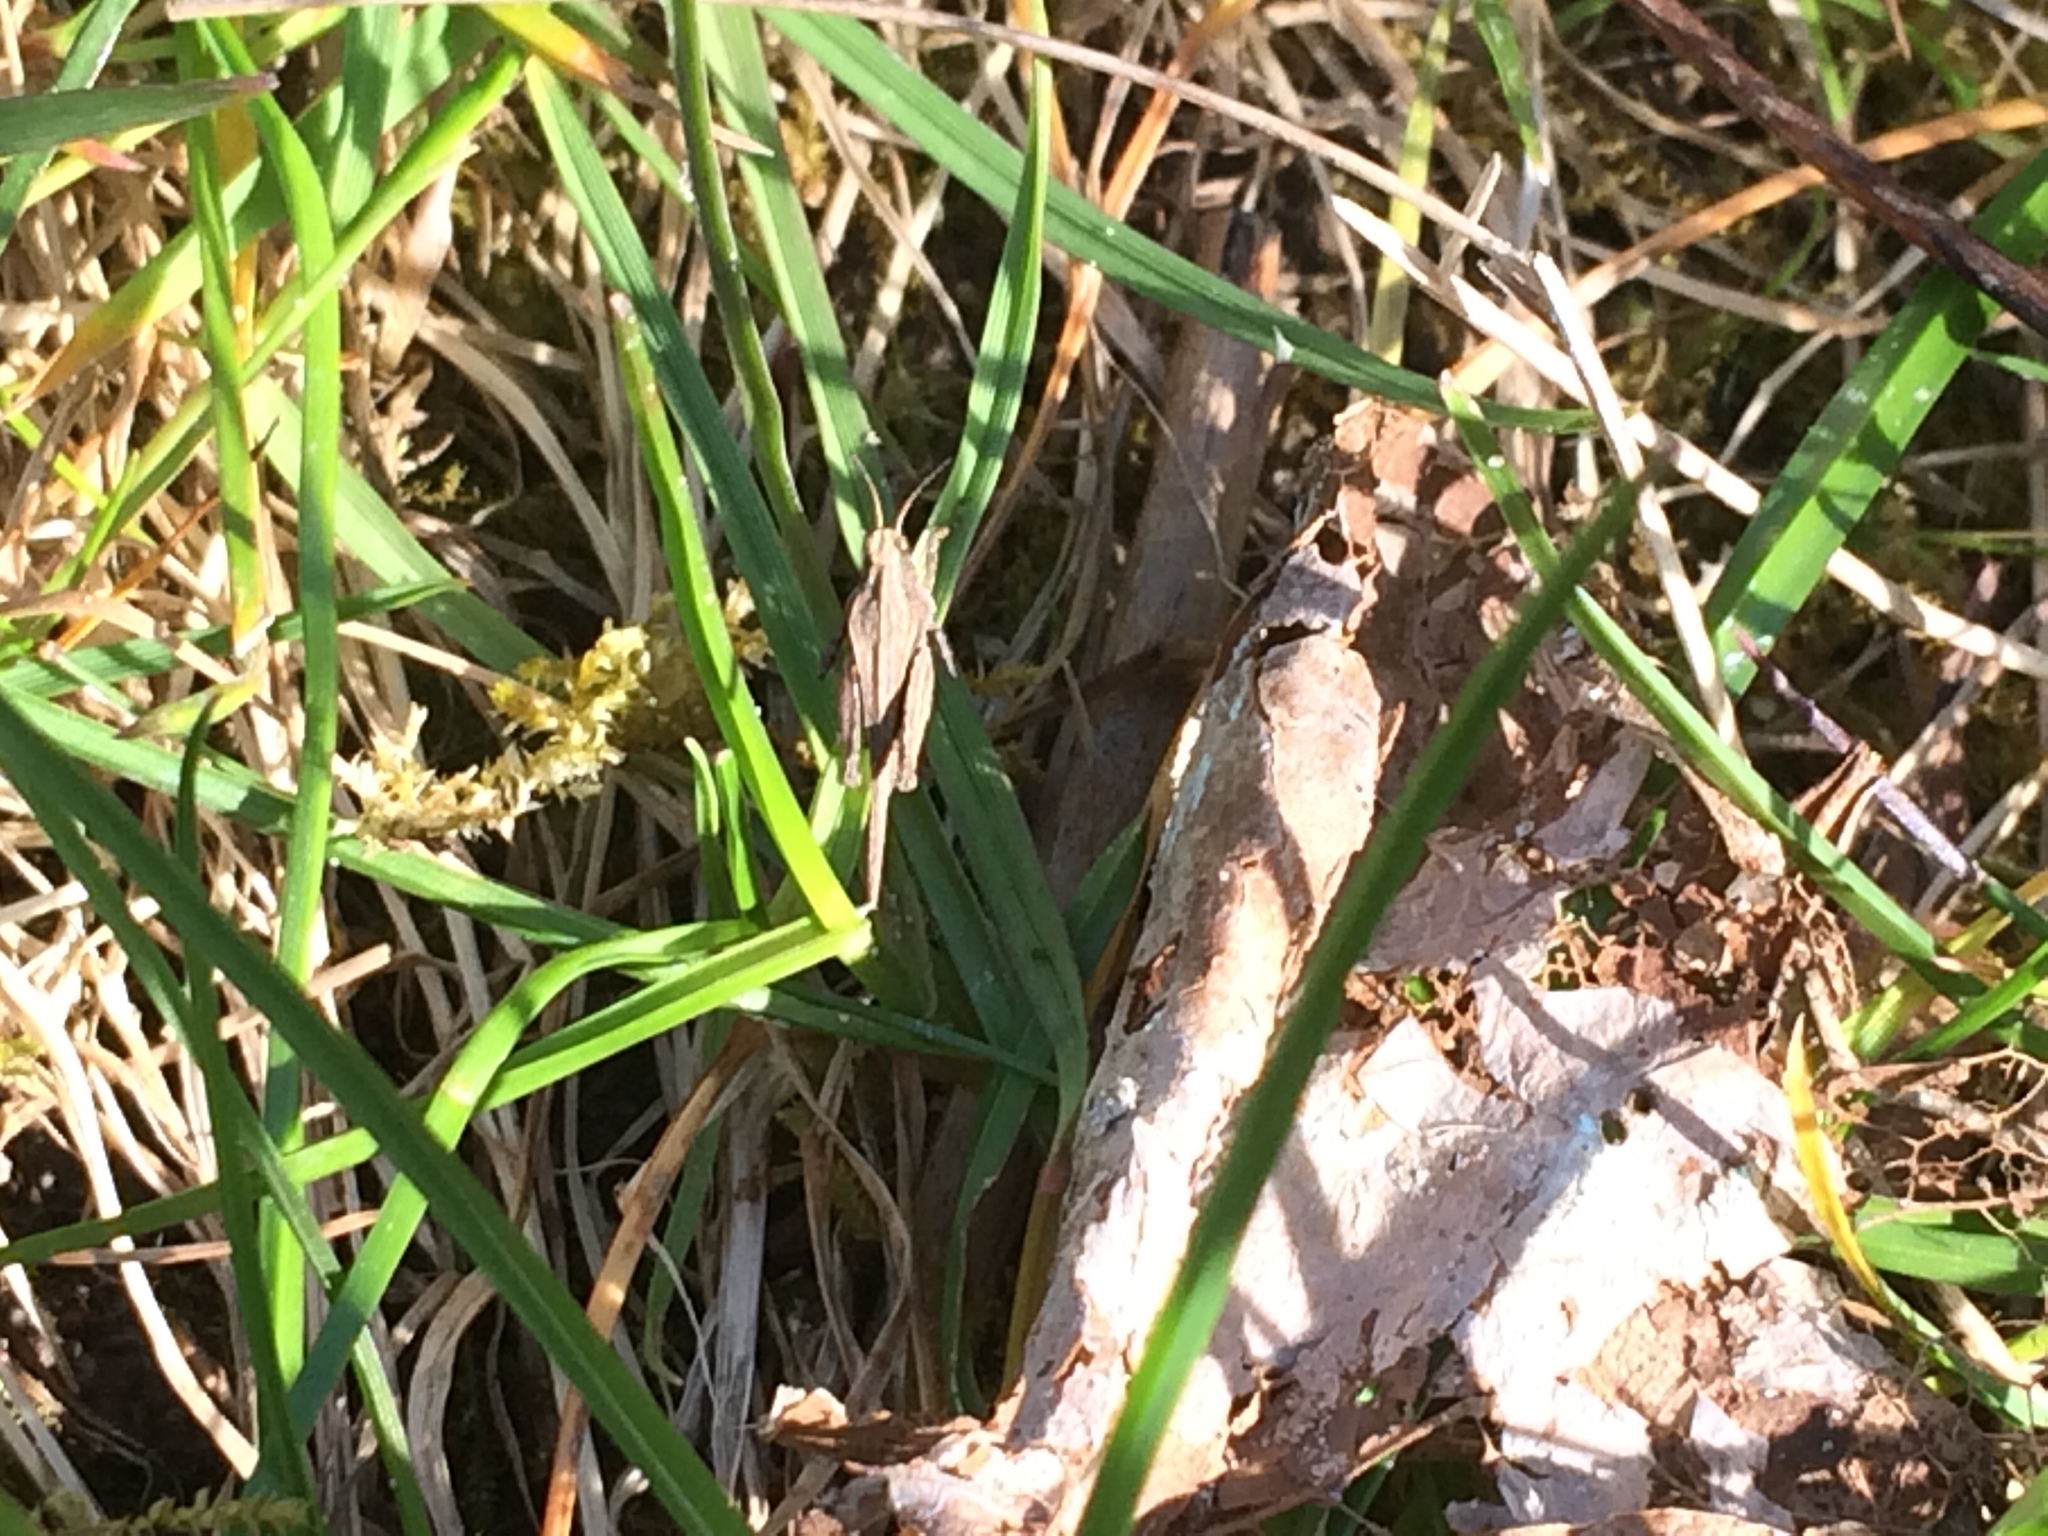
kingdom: Animalia
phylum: Arthropoda
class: Insecta
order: Orthoptera
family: Tetrigidae
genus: Tetrix
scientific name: Tetrix subulata
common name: Slender ground-hopper
